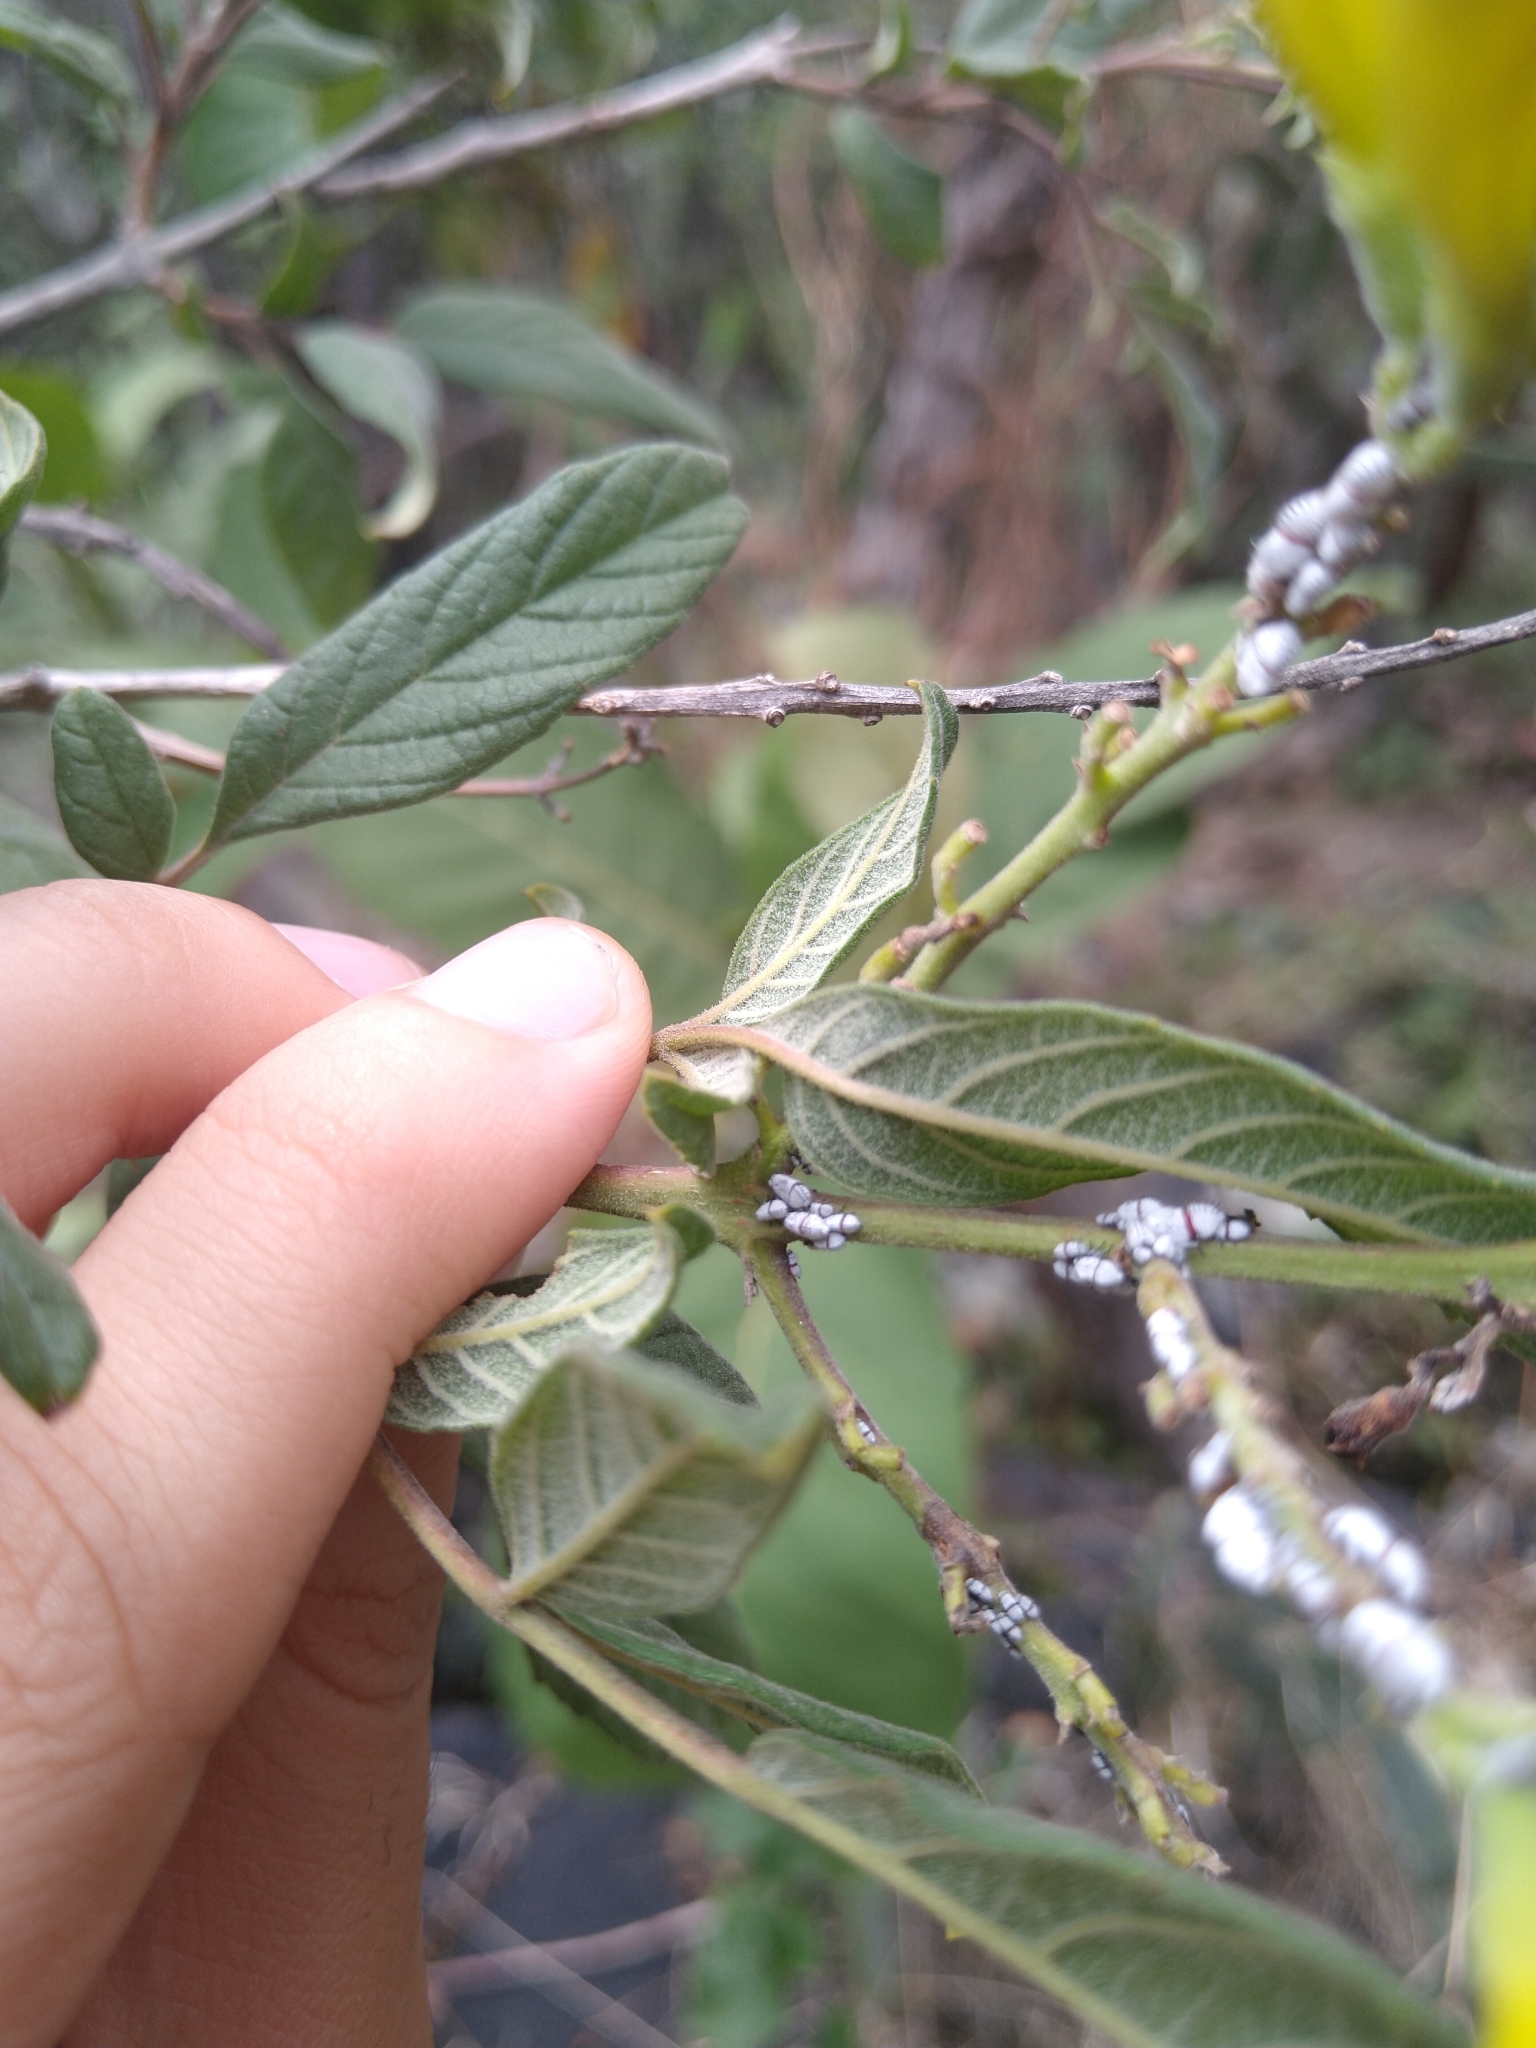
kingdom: Animalia
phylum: Arthropoda
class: Insecta
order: Hemiptera
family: Membracidae
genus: Membracis
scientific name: Membracis mexicana
